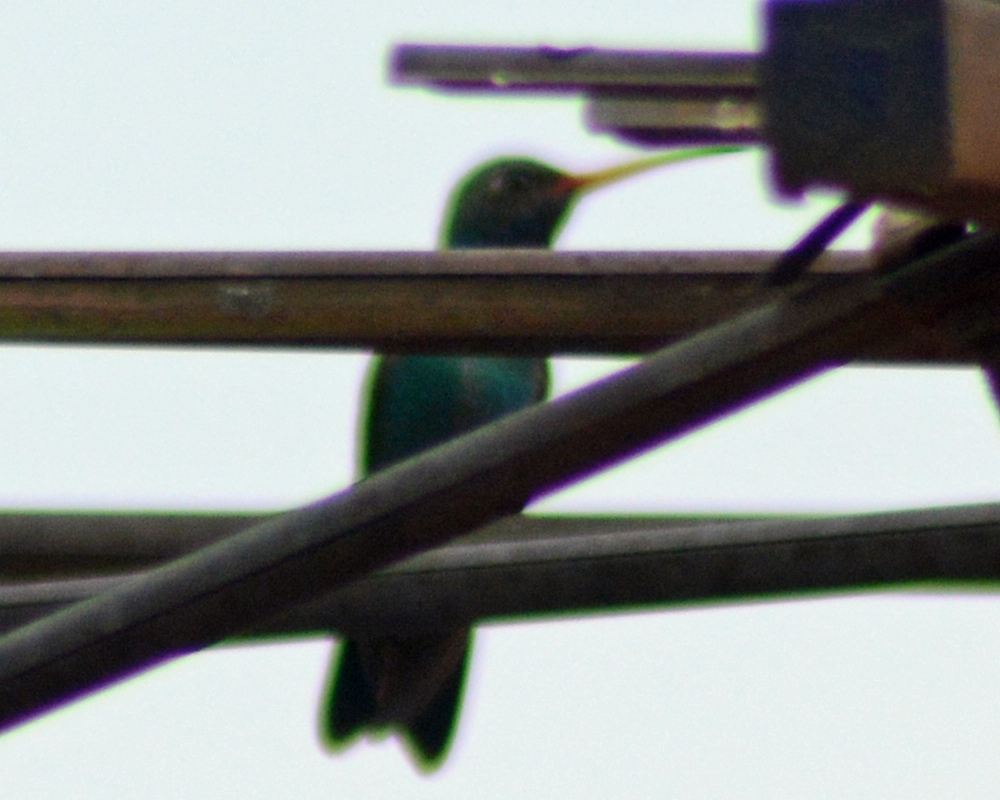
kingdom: Animalia
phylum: Chordata
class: Aves
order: Apodiformes
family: Trochilidae
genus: Cynanthus
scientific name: Cynanthus latirostris
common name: Broad-billed hummingbird
